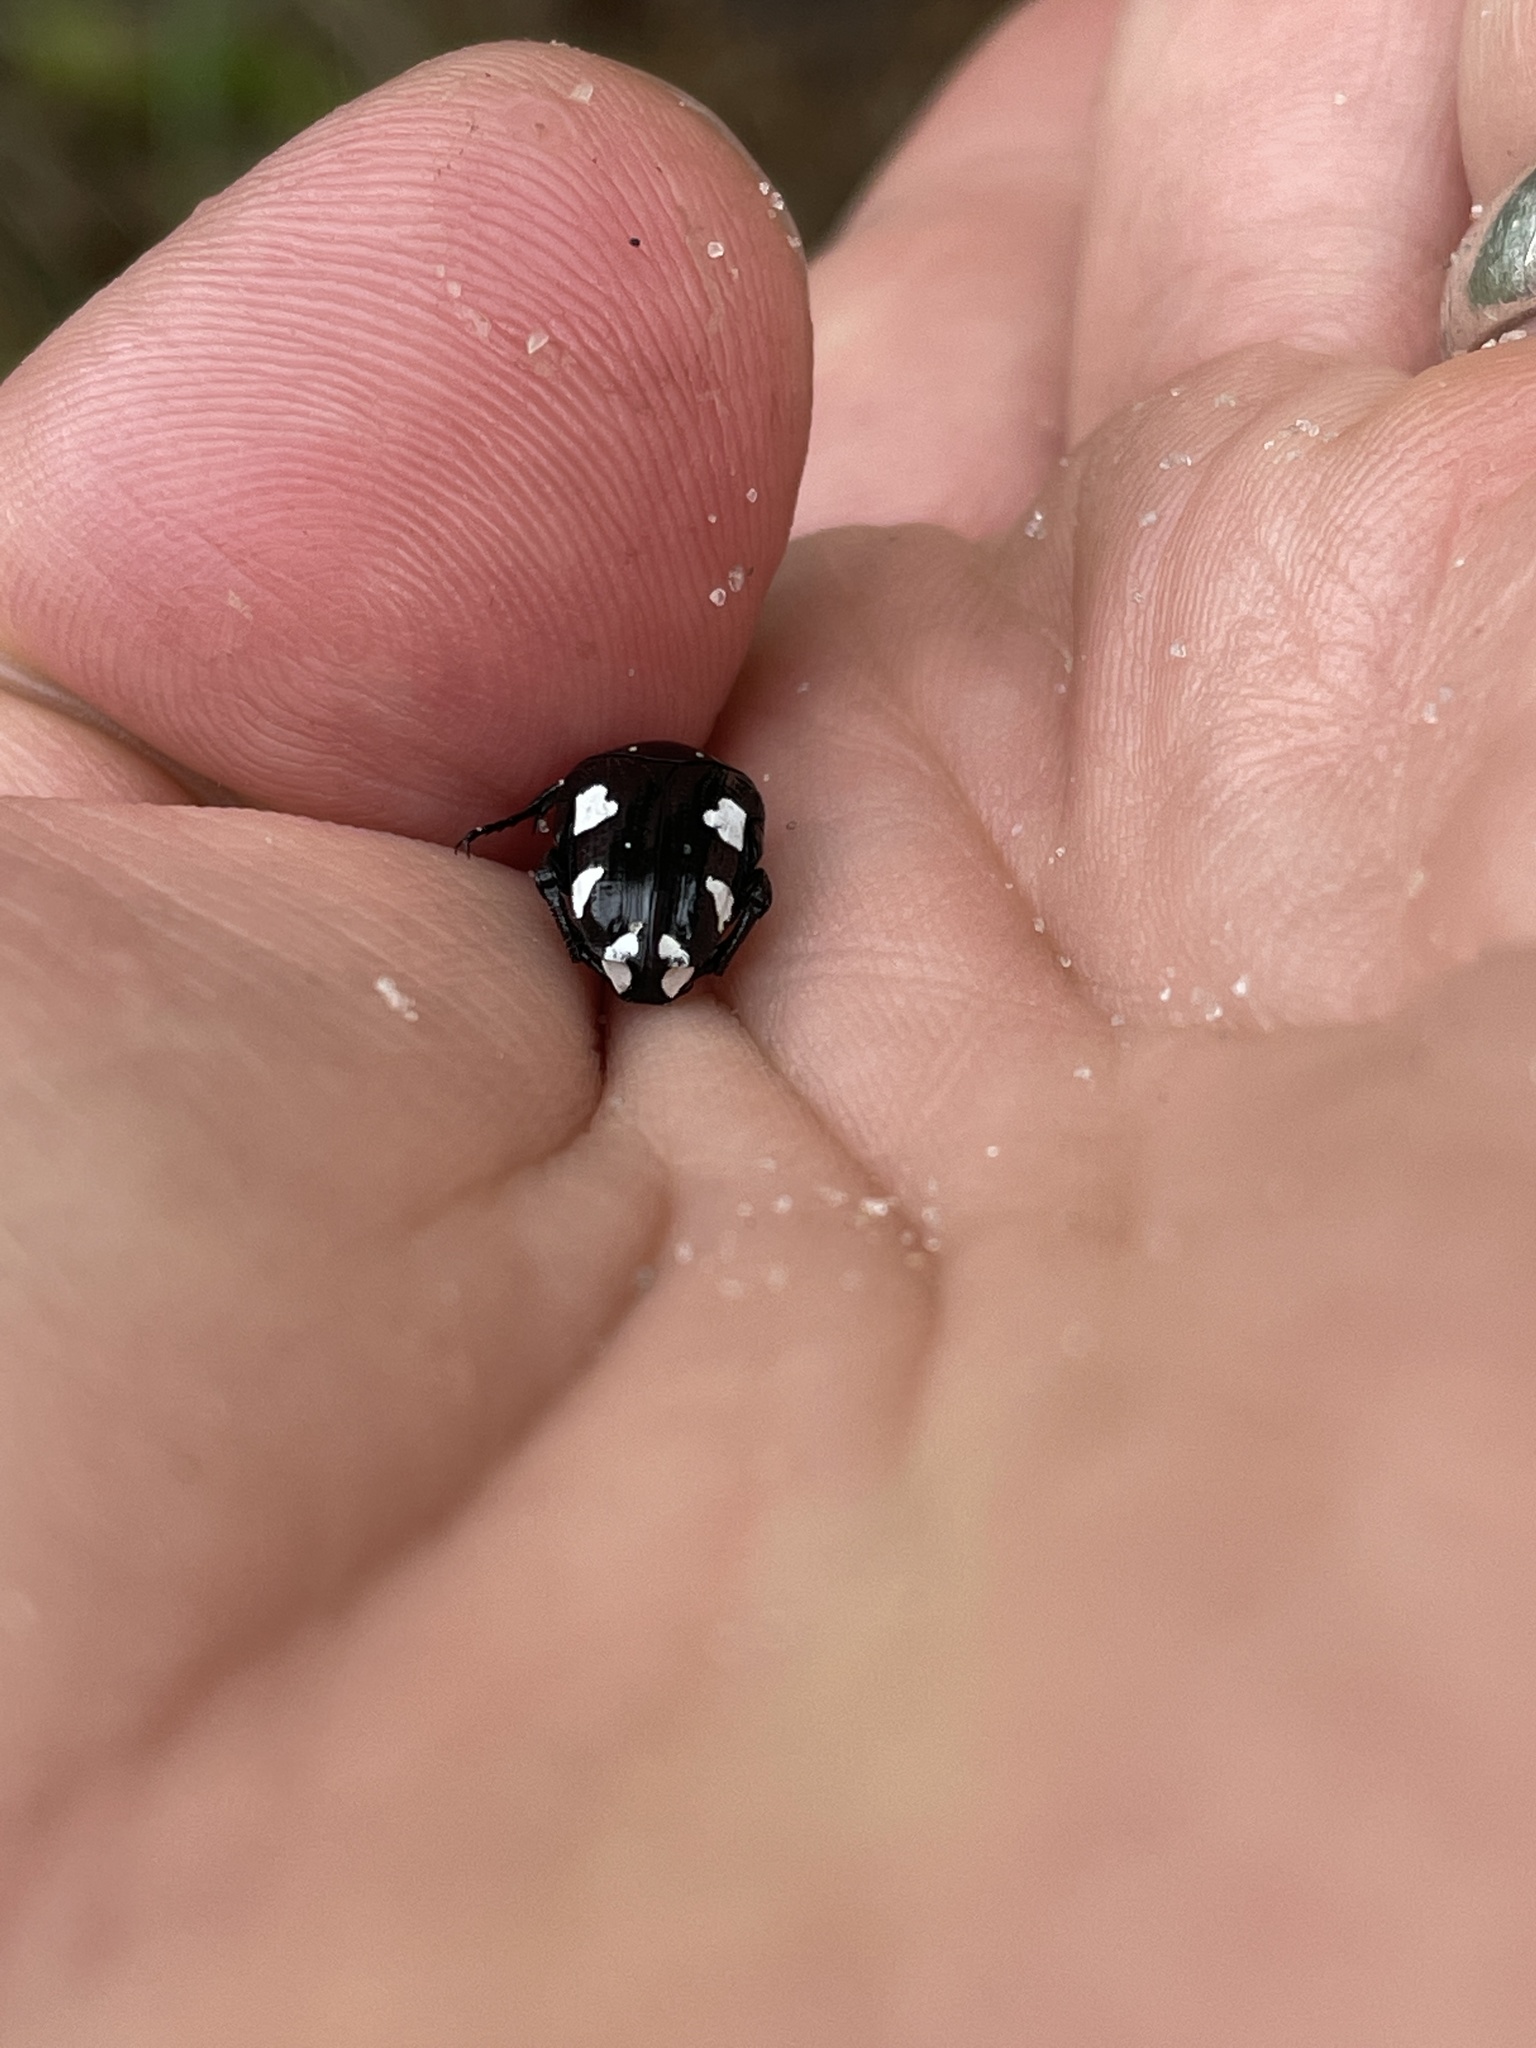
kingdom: Animalia
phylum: Arthropoda
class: Insecta
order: Coleoptera
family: Scarabaeidae
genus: Mausoleopsis
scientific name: Mausoleopsis amabilis
